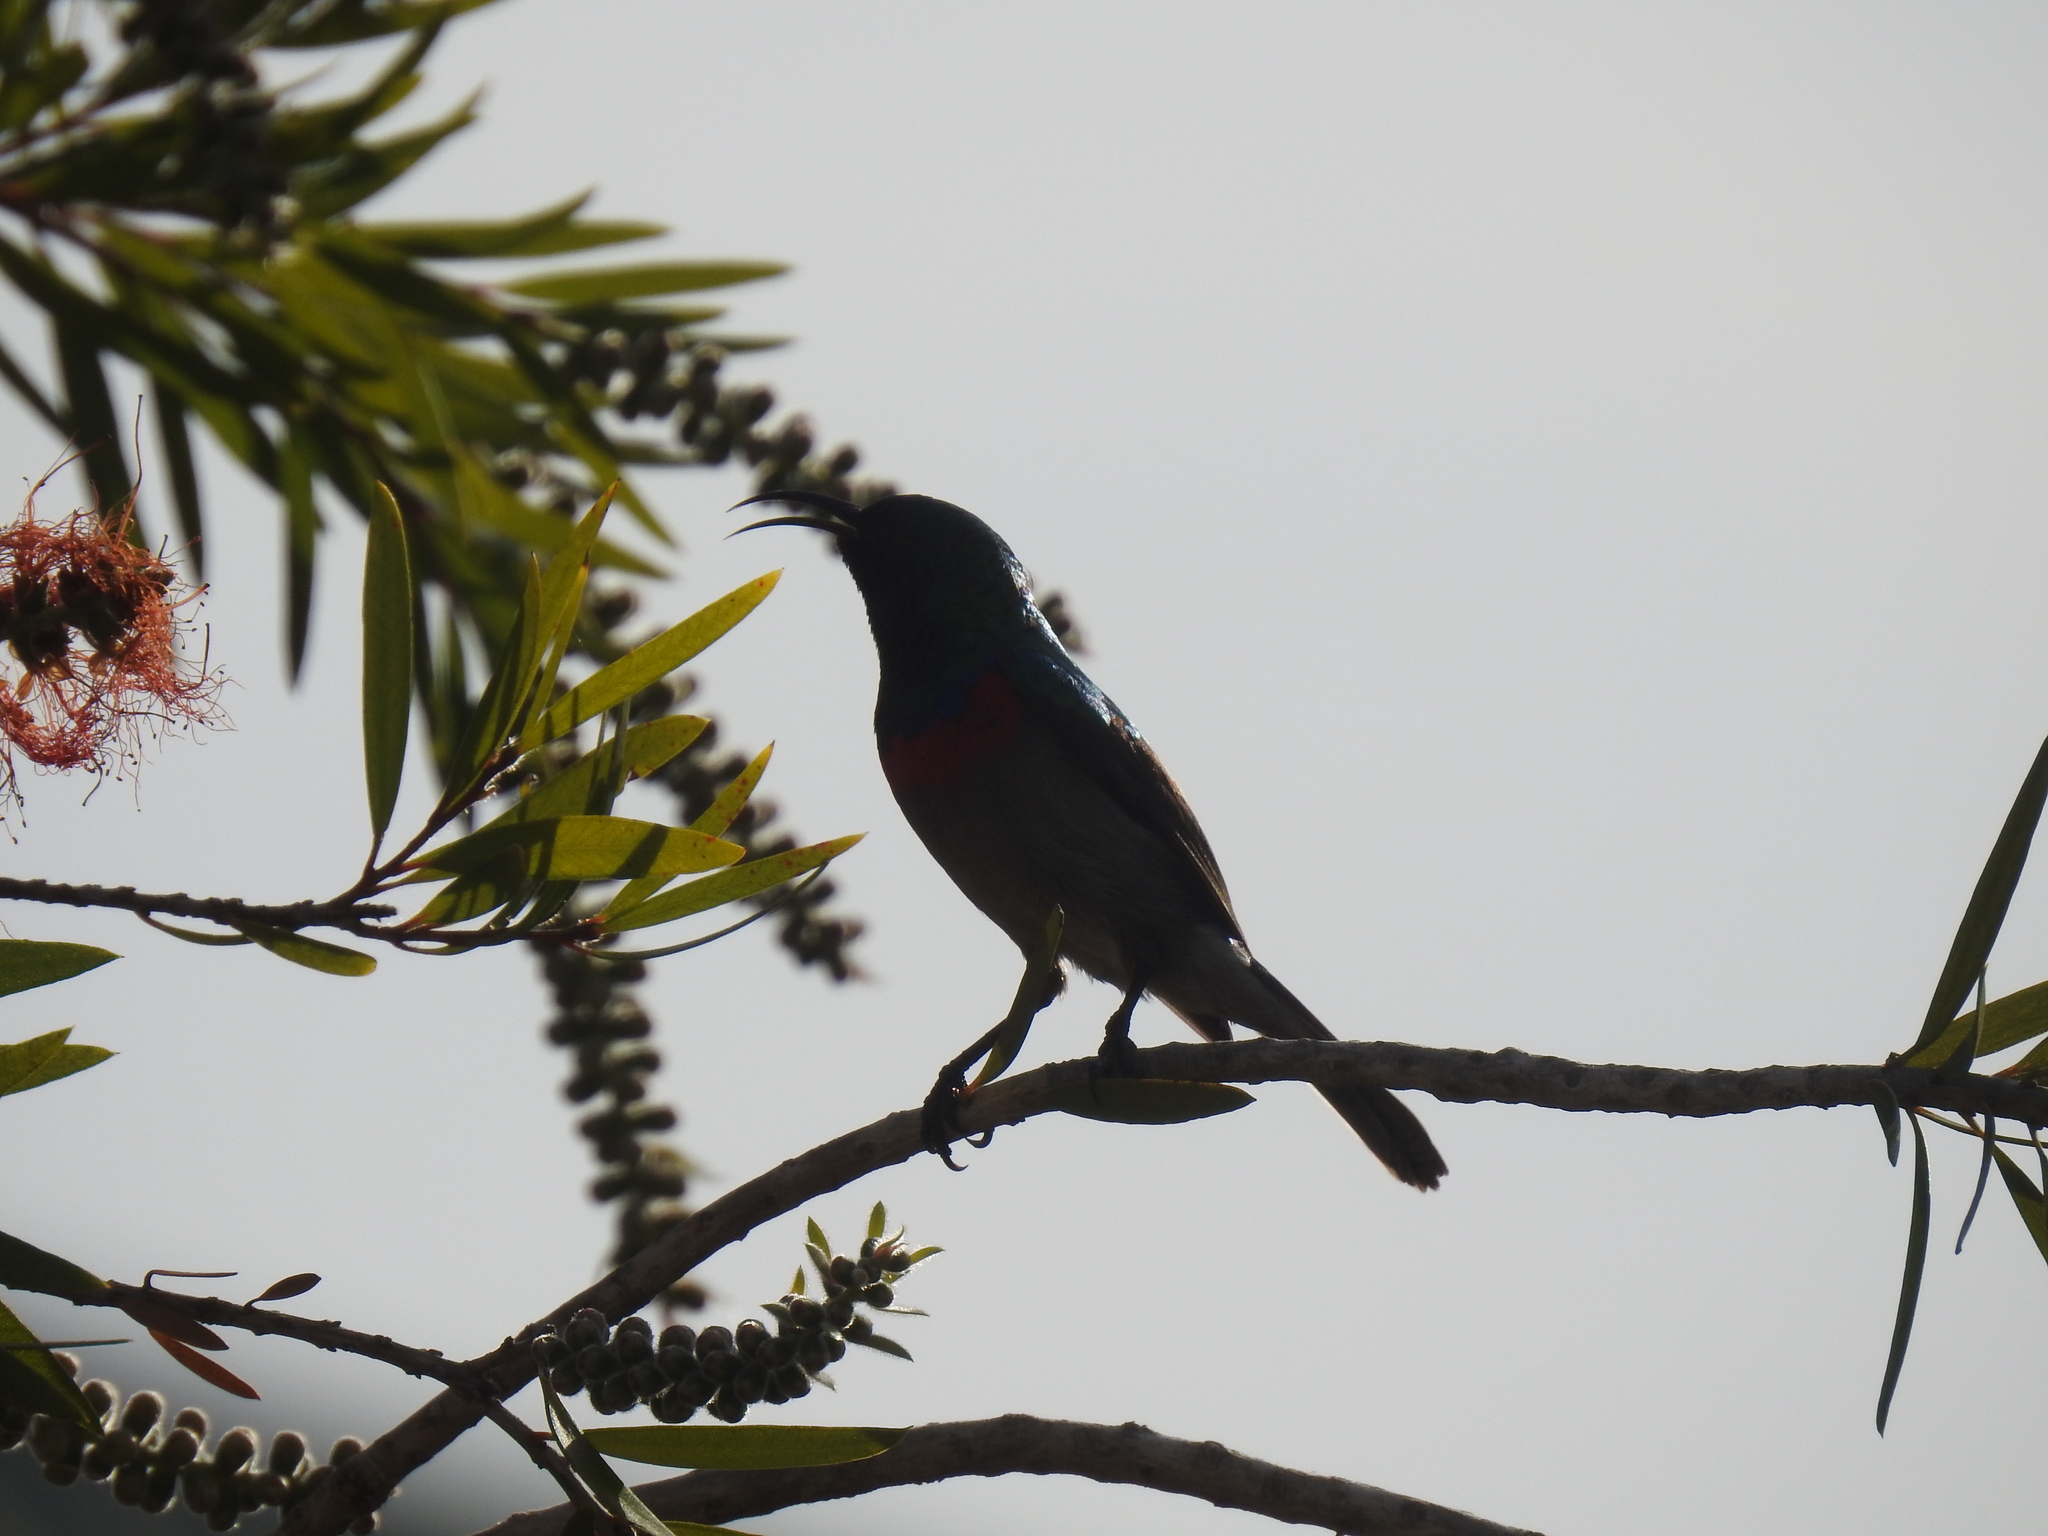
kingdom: Animalia
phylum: Chordata
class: Aves
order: Passeriformes
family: Nectariniidae
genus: Cinnyris
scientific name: Cinnyris chalybeus
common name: Southern double-collared sunbird
